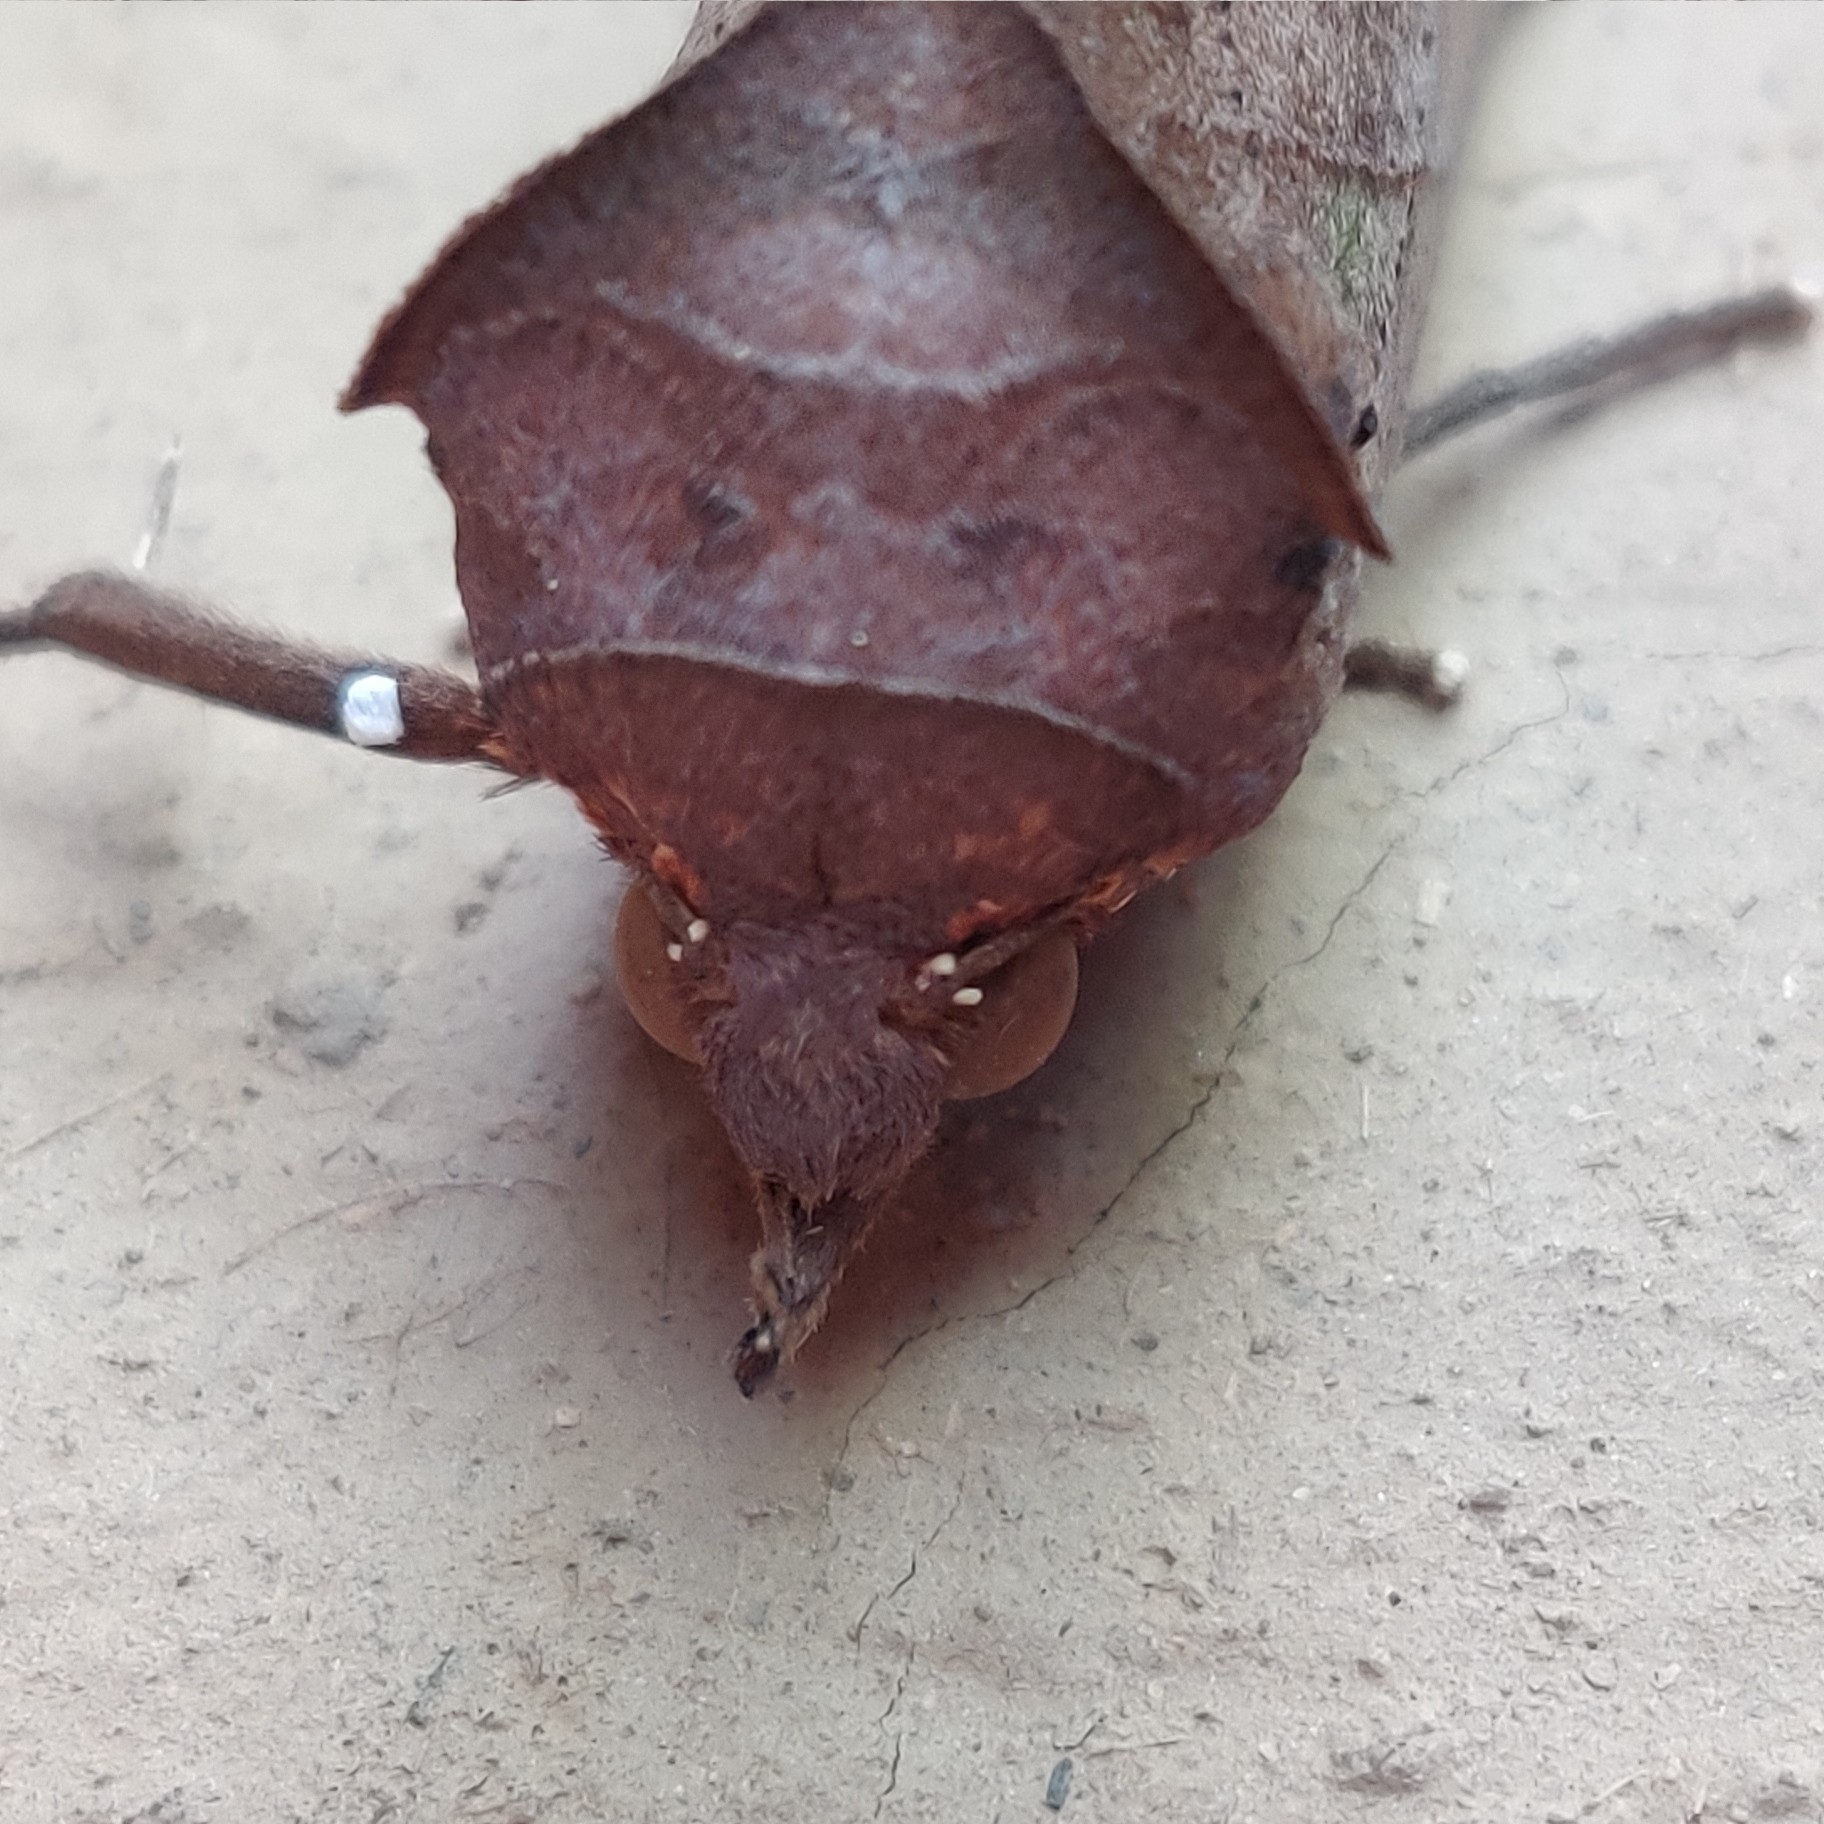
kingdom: Animalia
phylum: Arthropoda
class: Insecta
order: Lepidoptera
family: Erebidae
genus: Eudocima
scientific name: Eudocima tyrannus
